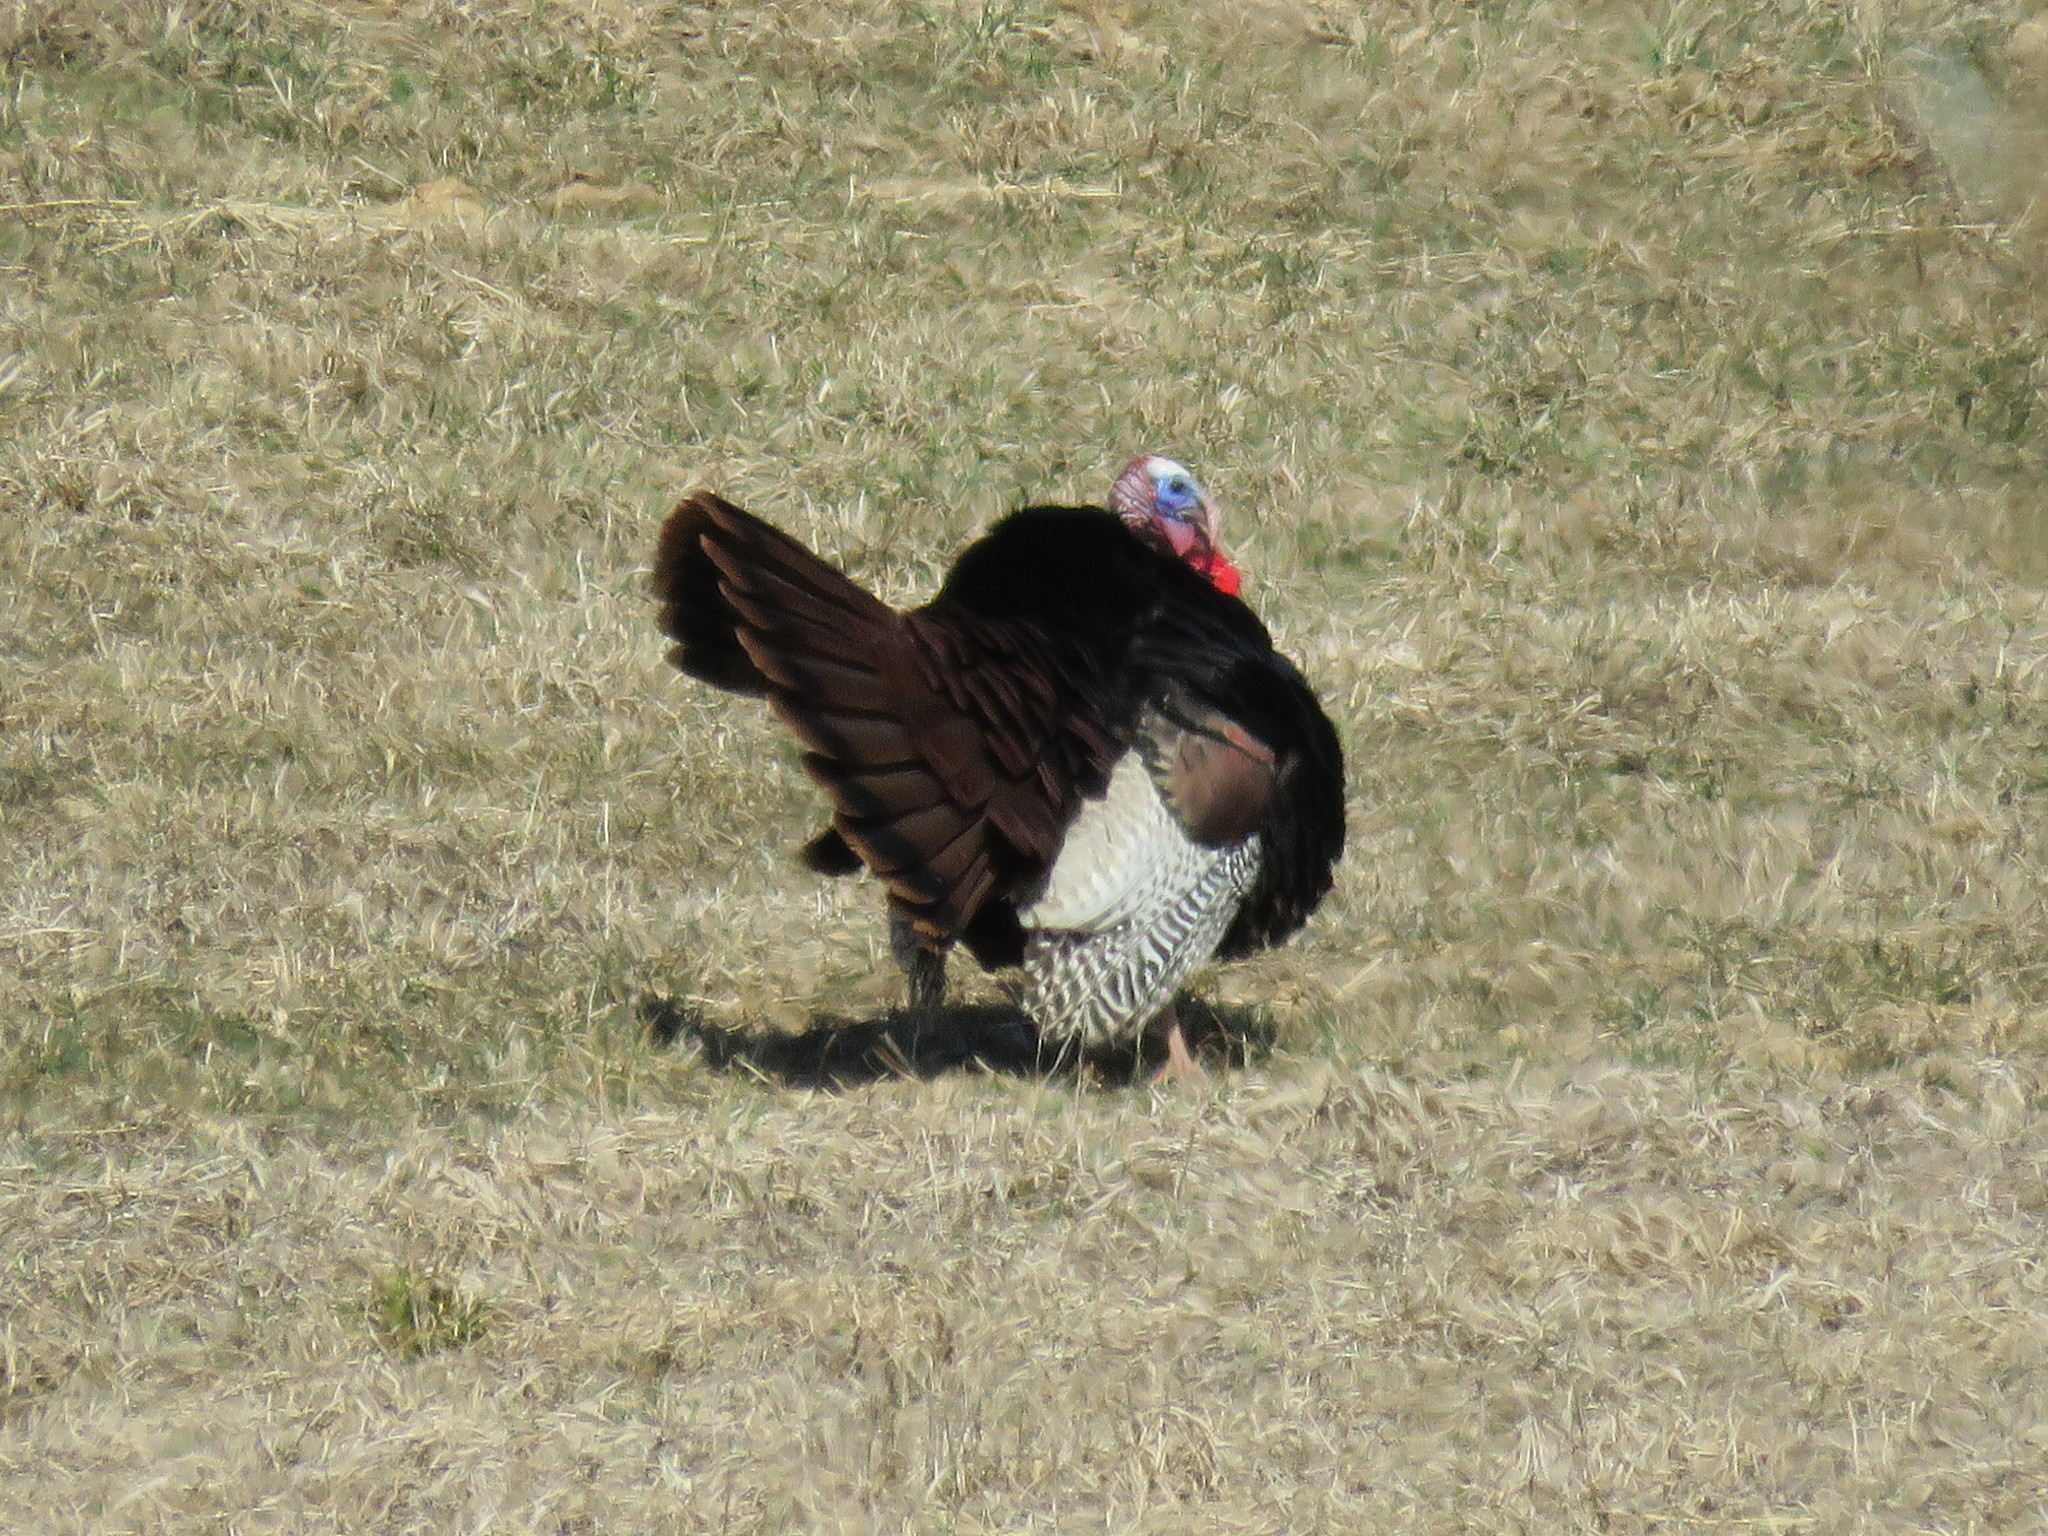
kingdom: Animalia
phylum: Chordata
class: Aves
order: Galliformes
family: Phasianidae
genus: Meleagris
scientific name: Meleagris gallopavo
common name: Wild turkey
